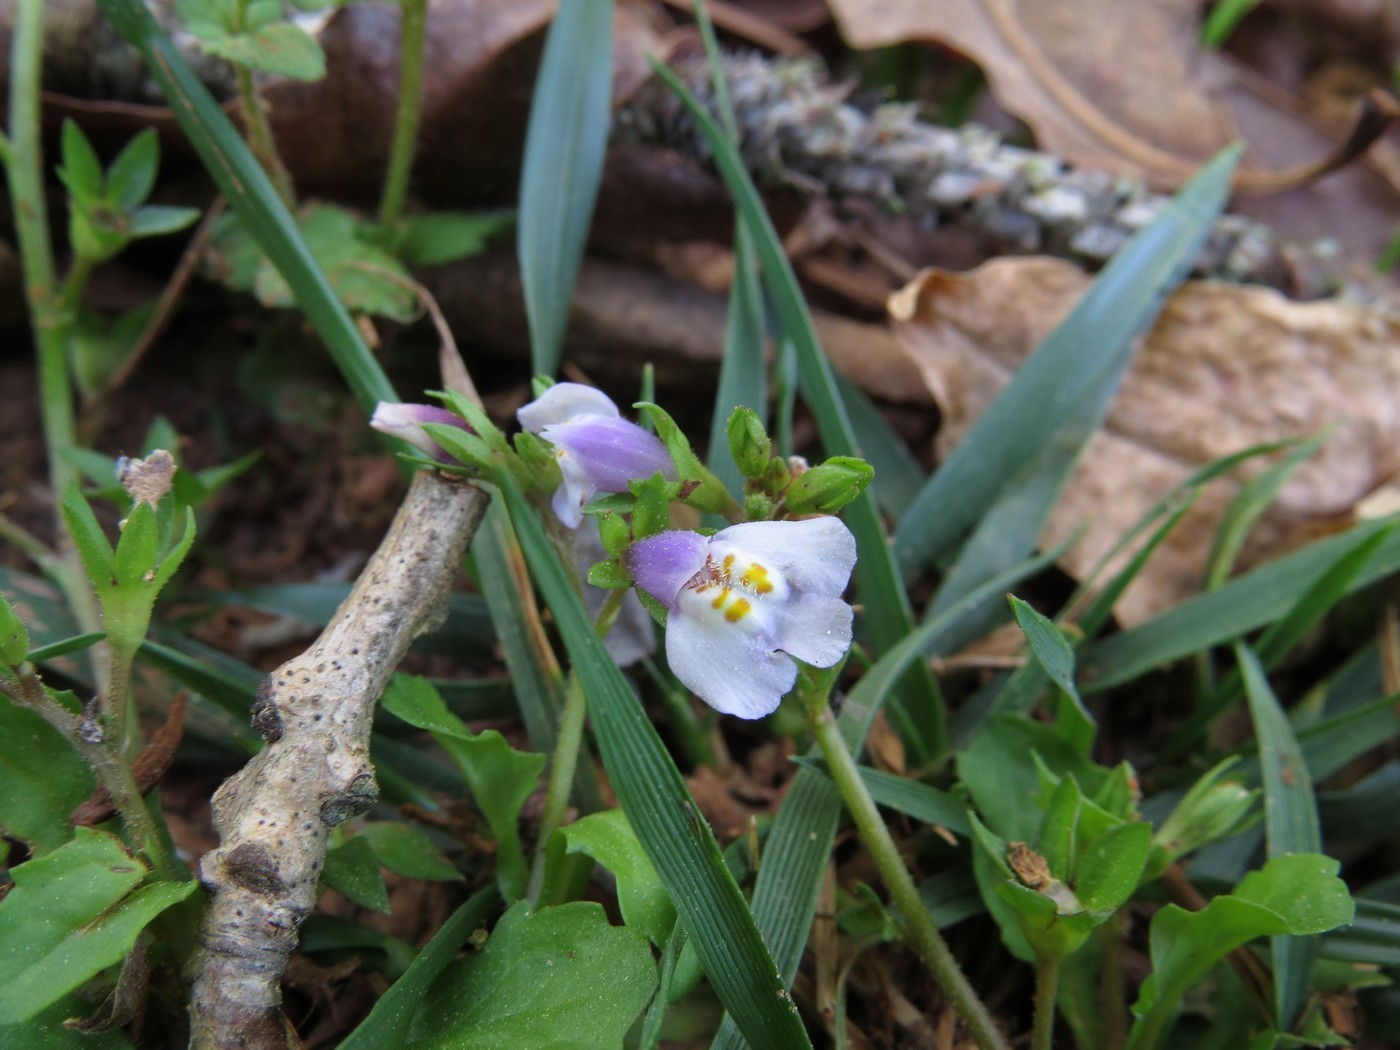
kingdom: Plantae
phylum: Tracheophyta
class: Magnoliopsida
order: Lamiales
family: Mazaceae
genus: Mazus
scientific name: Mazus pumilus
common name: Japanese mazus
